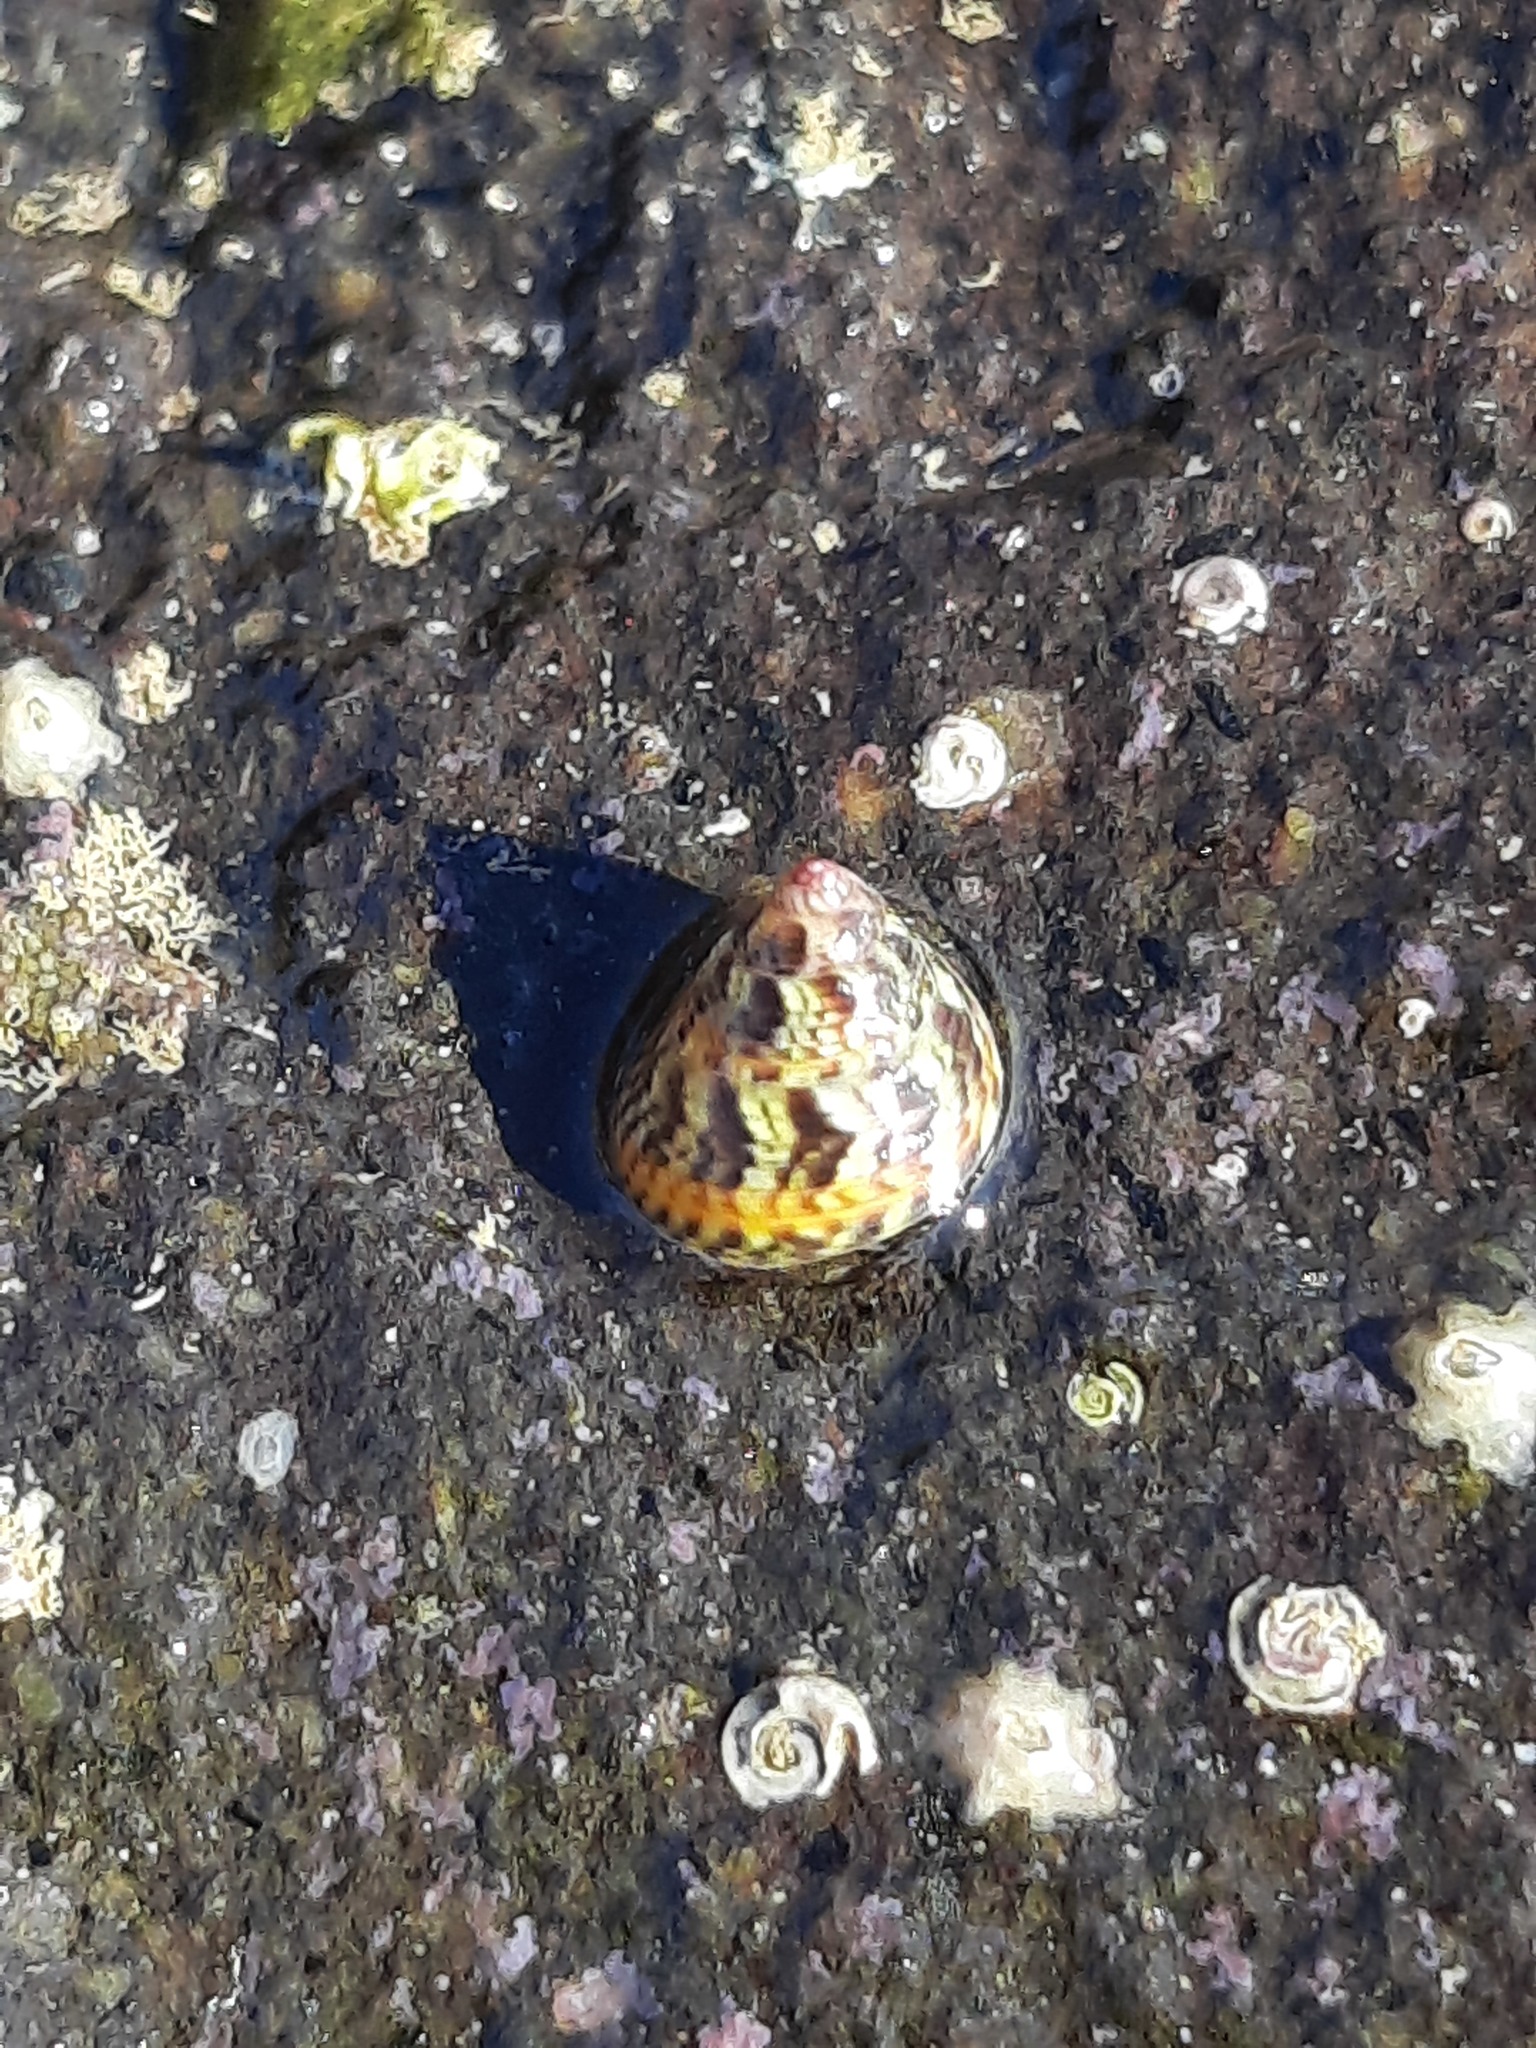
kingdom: Animalia
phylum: Mollusca
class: Gastropoda
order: Trochida
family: Trochidae
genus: Micrelenchus
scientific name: Micrelenchus sanguineus
